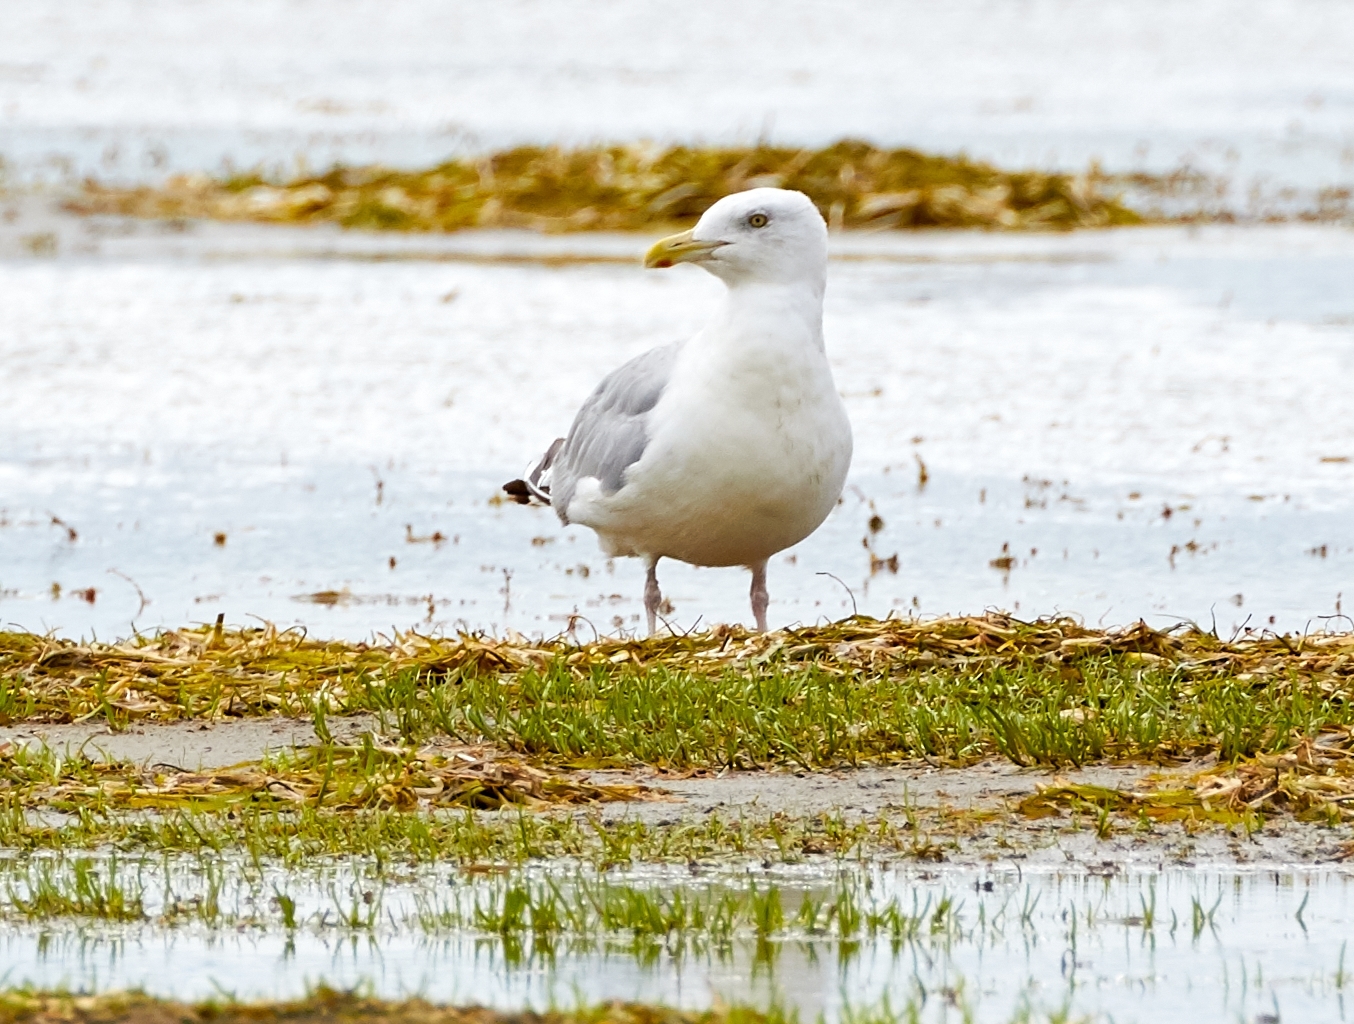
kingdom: Animalia
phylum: Chordata
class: Aves
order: Charadriiformes
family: Laridae
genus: Larus
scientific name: Larus argentatus
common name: Herring gull
